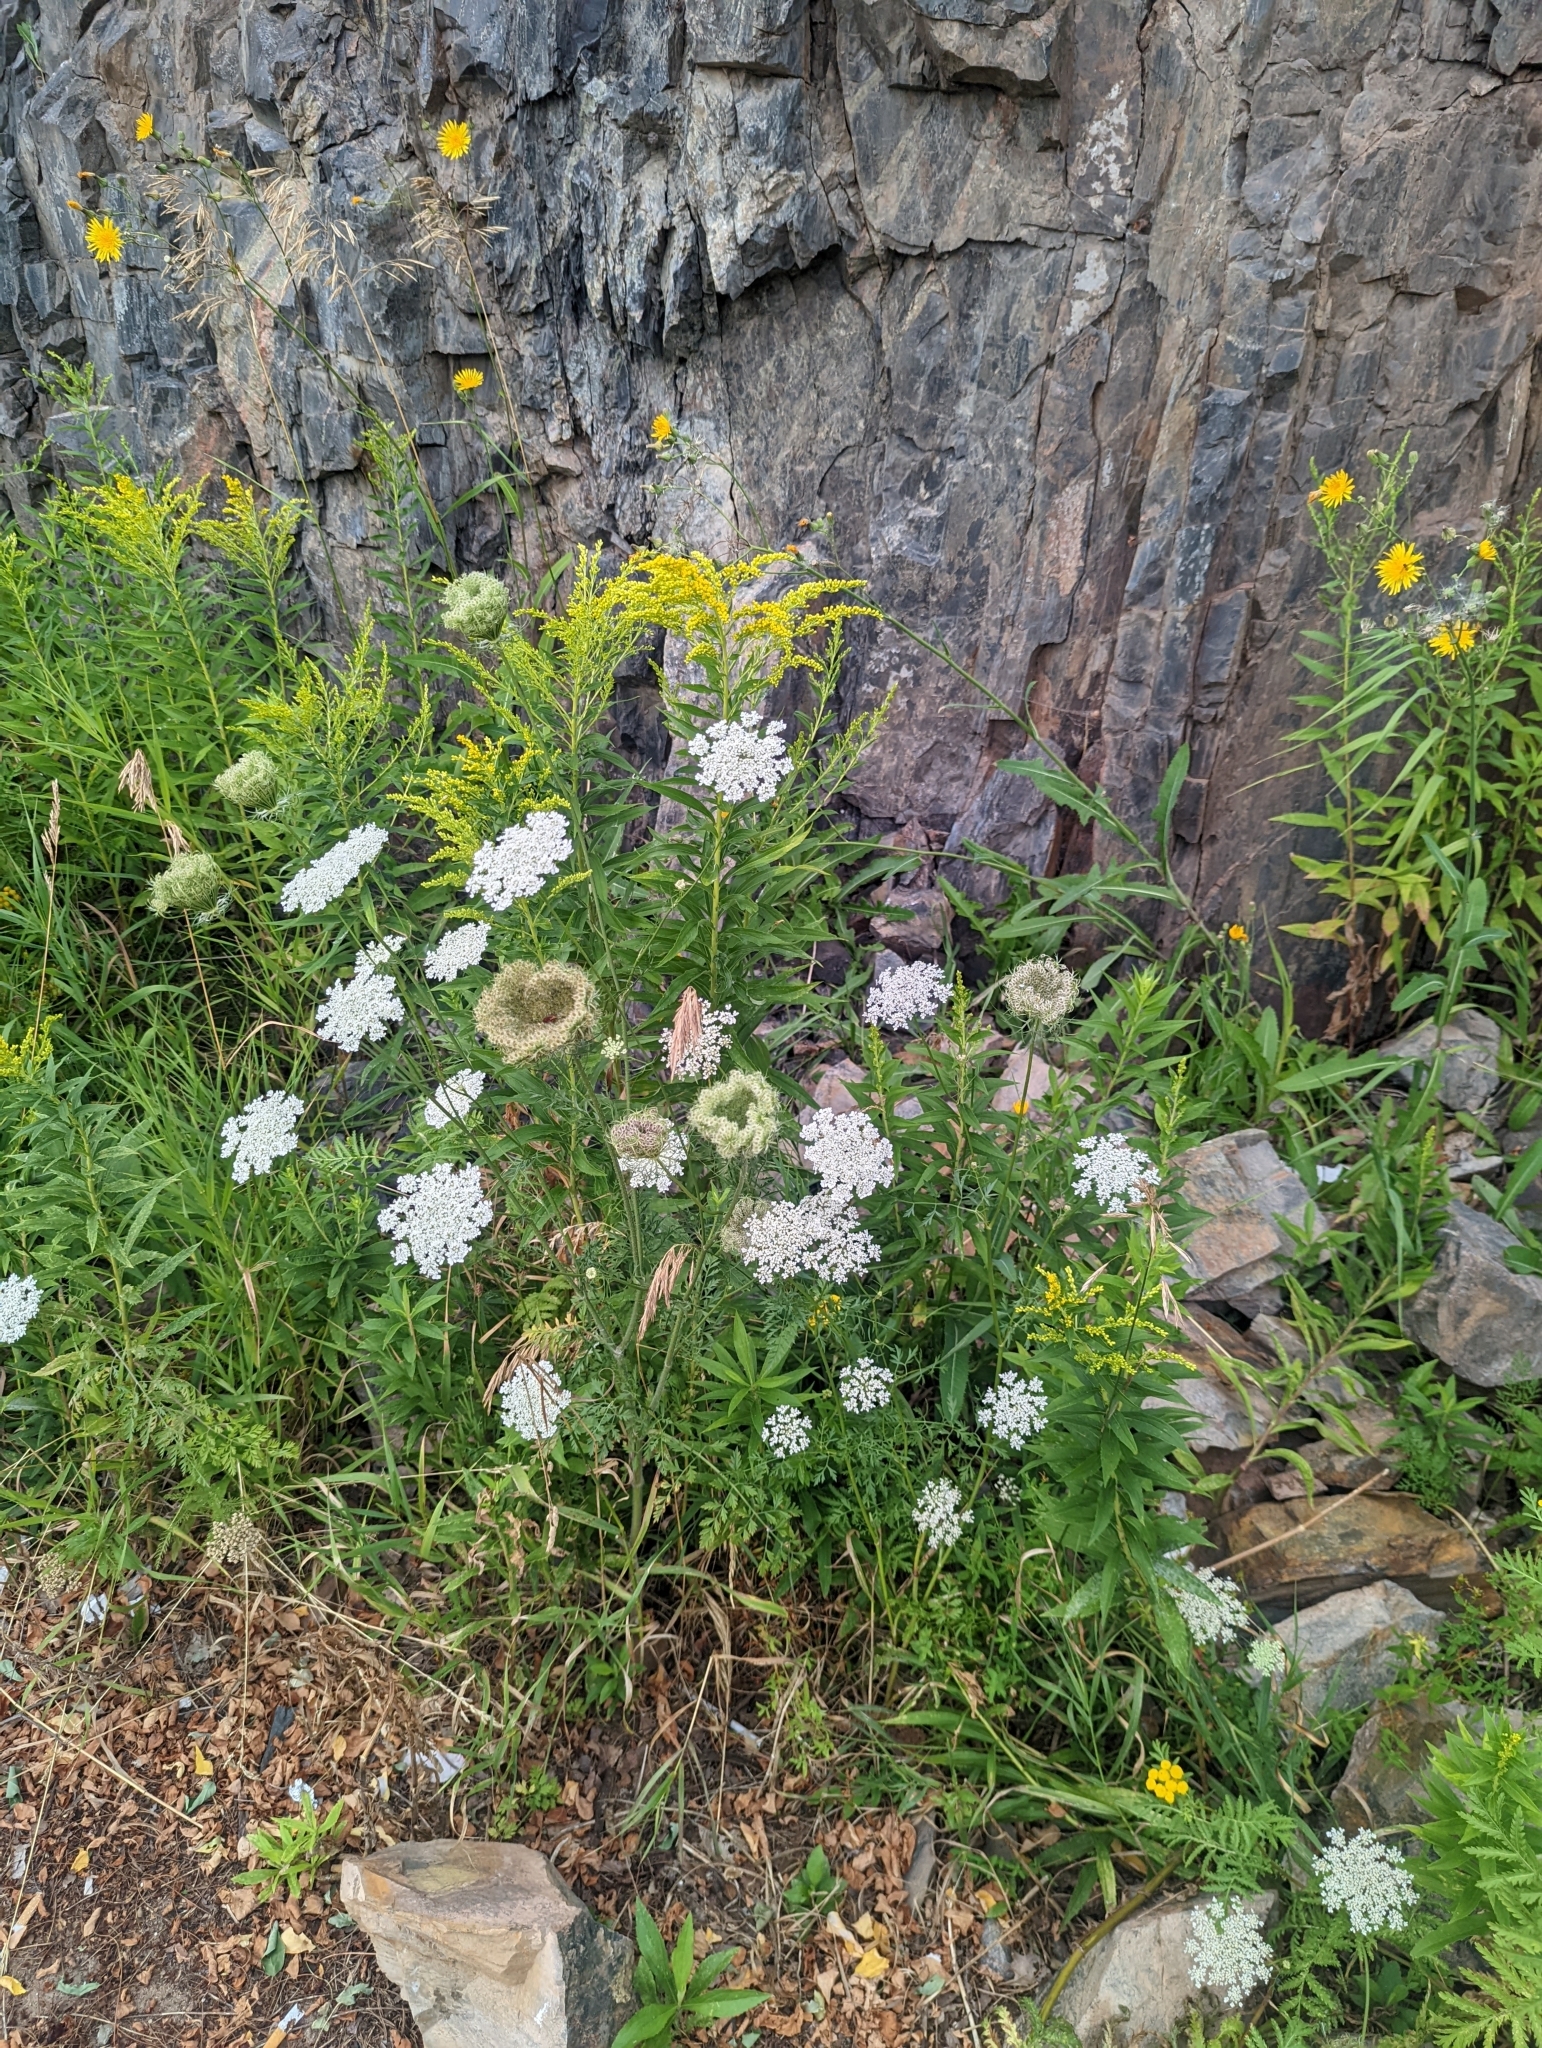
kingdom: Plantae
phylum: Tracheophyta
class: Magnoliopsida
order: Apiales
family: Apiaceae
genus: Daucus
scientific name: Daucus carota
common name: Wild carrot
